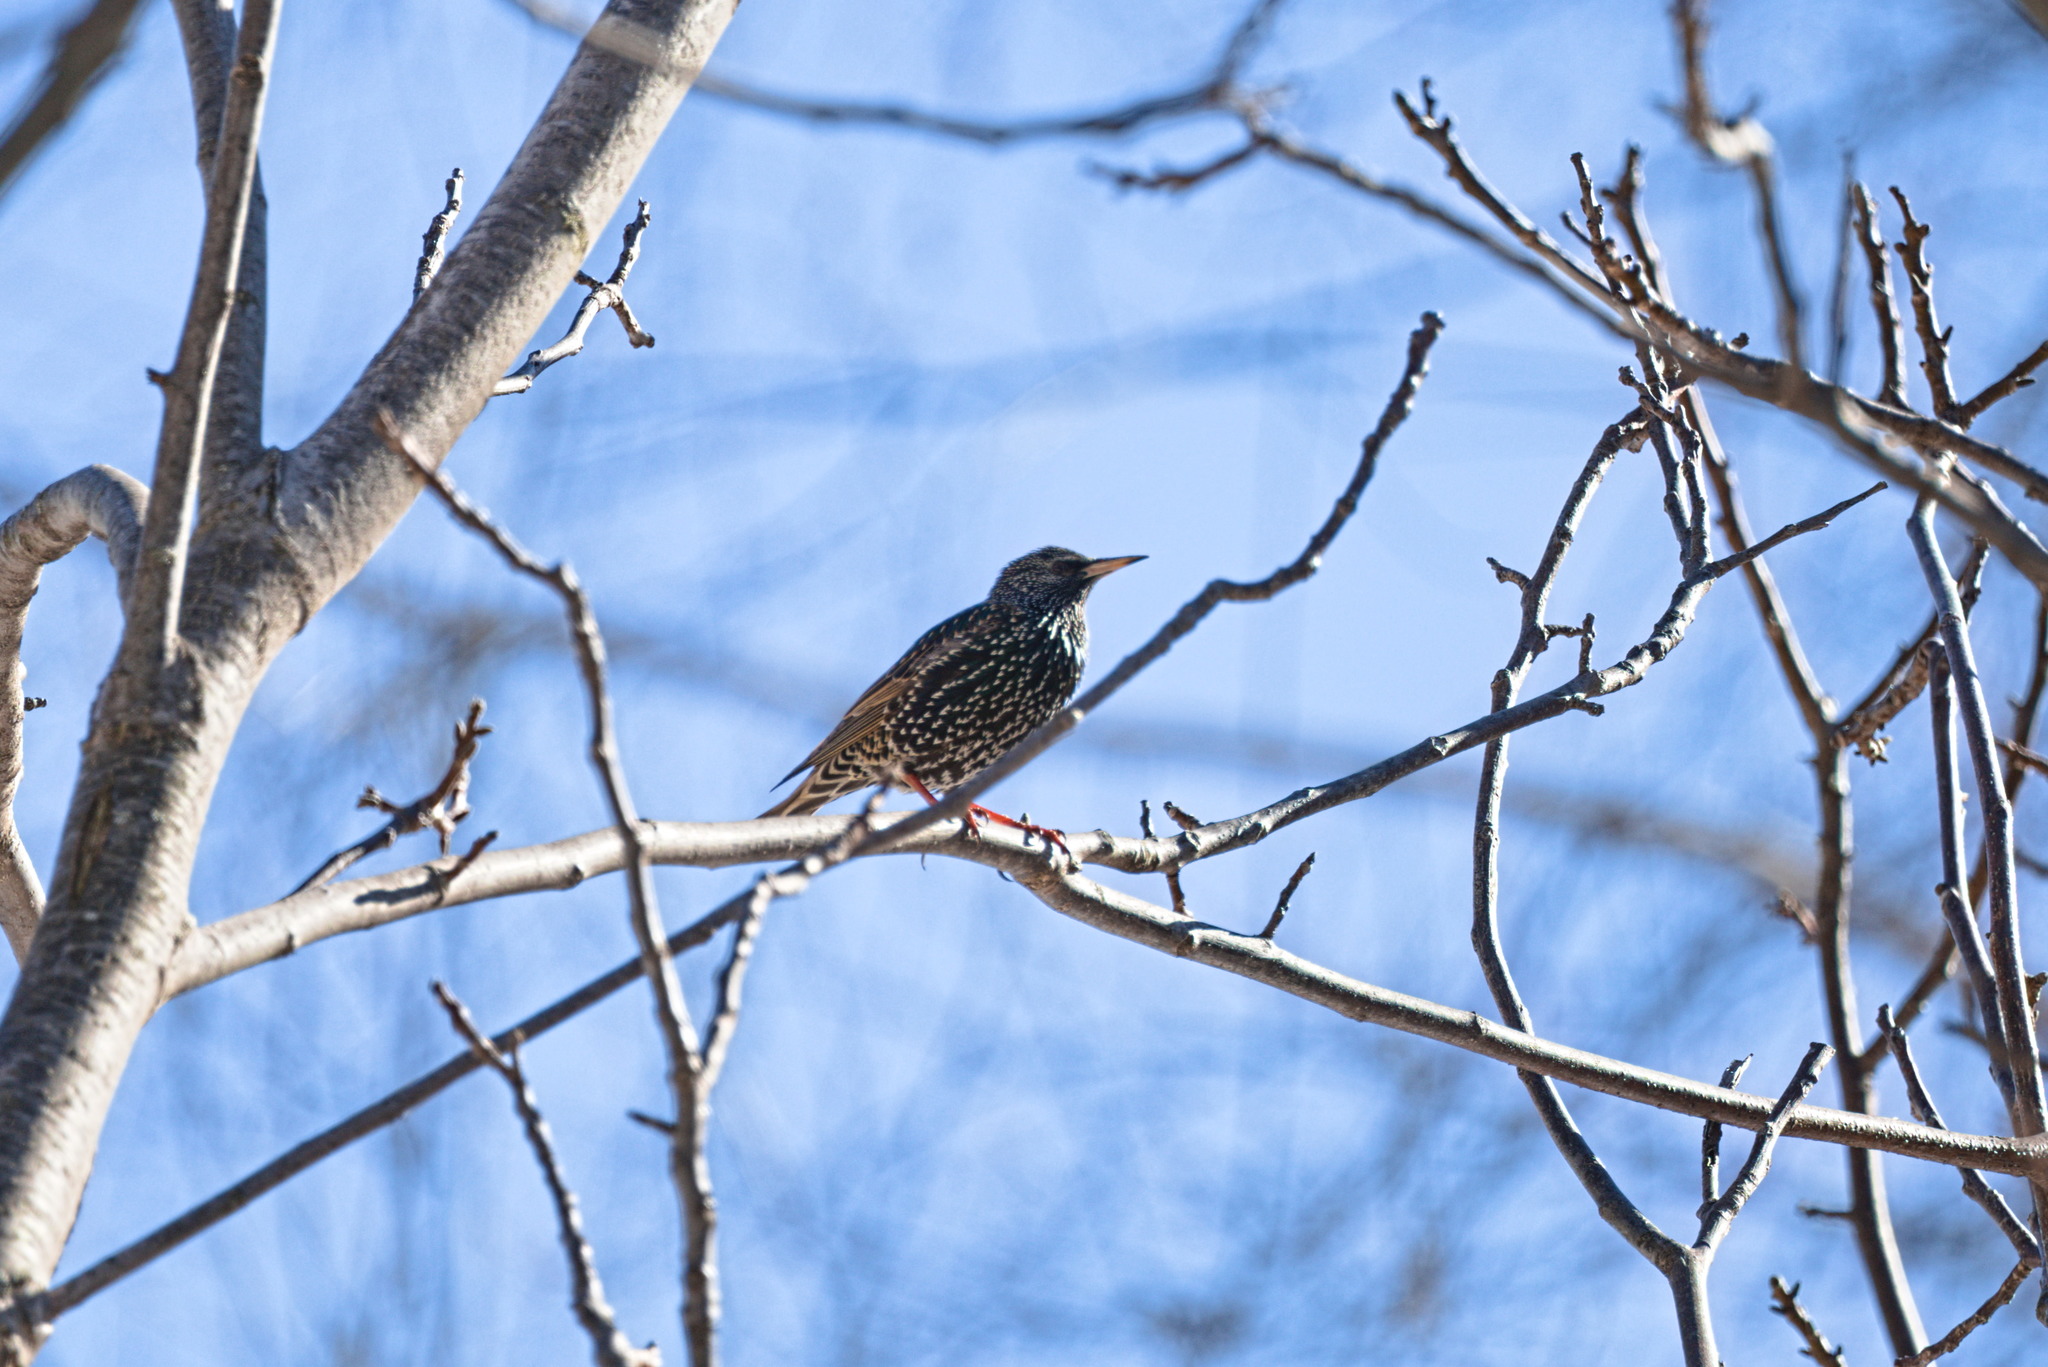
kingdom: Animalia
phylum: Chordata
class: Aves
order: Passeriformes
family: Sturnidae
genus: Sturnus
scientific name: Sturnus vulgaris
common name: Common starling
